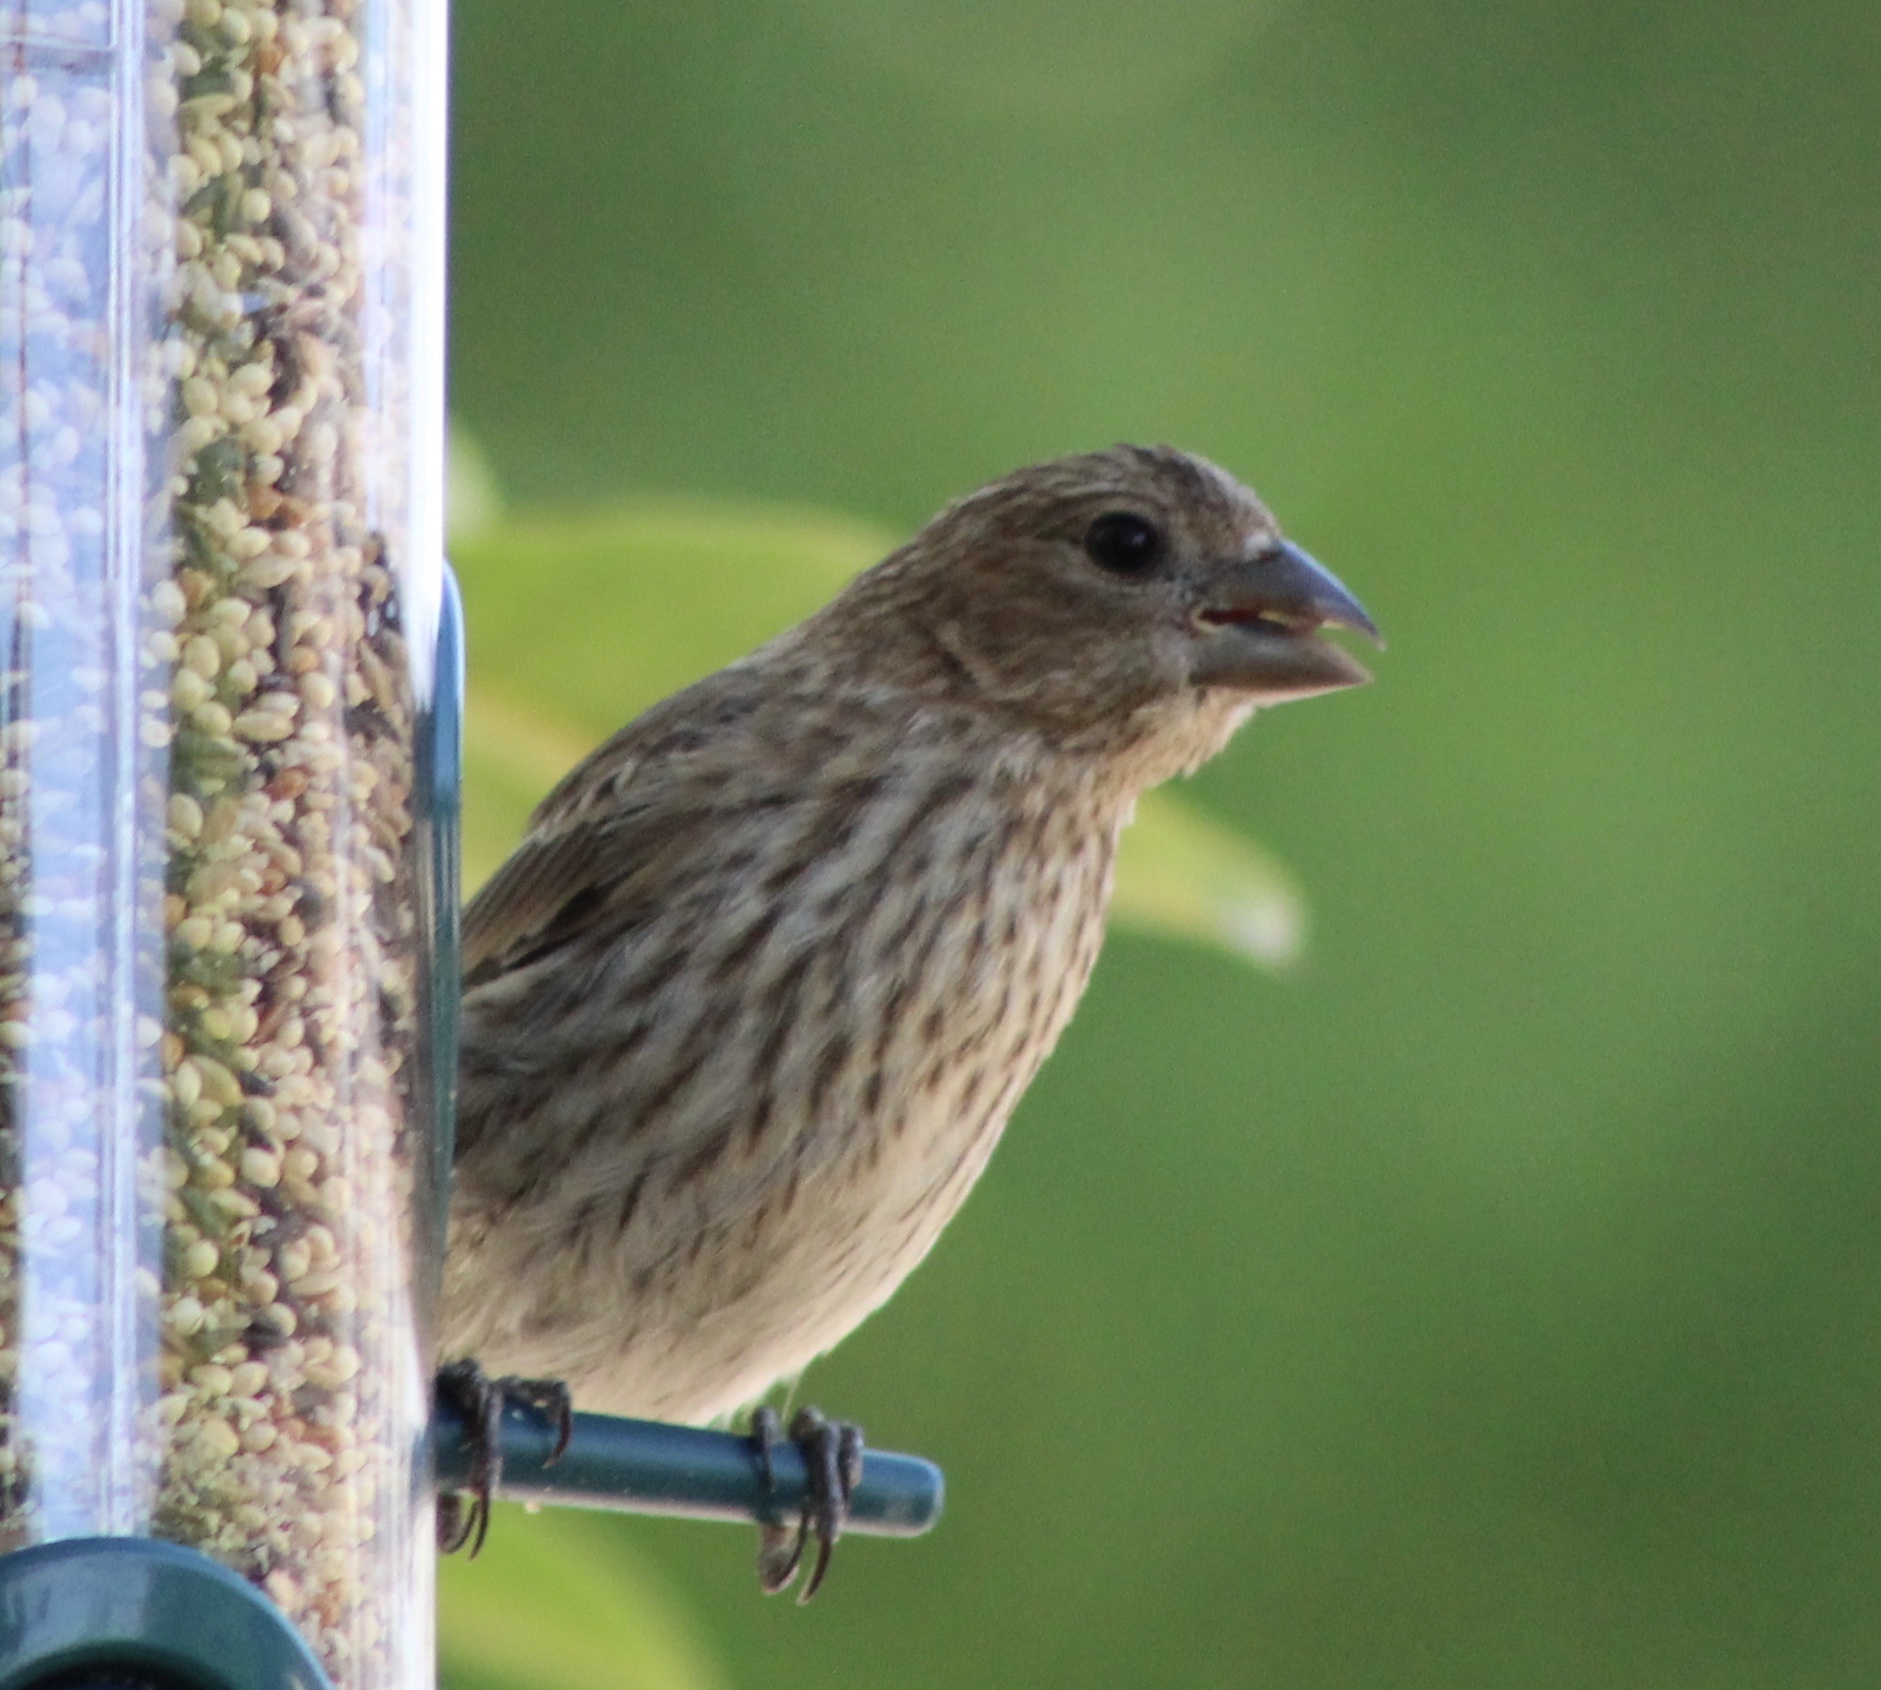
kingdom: Animalia
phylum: Chordata
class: Aves
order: Passeriformes
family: Fringillidae
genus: Haemorhous
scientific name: Haemorhous mexicanus
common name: House finch
